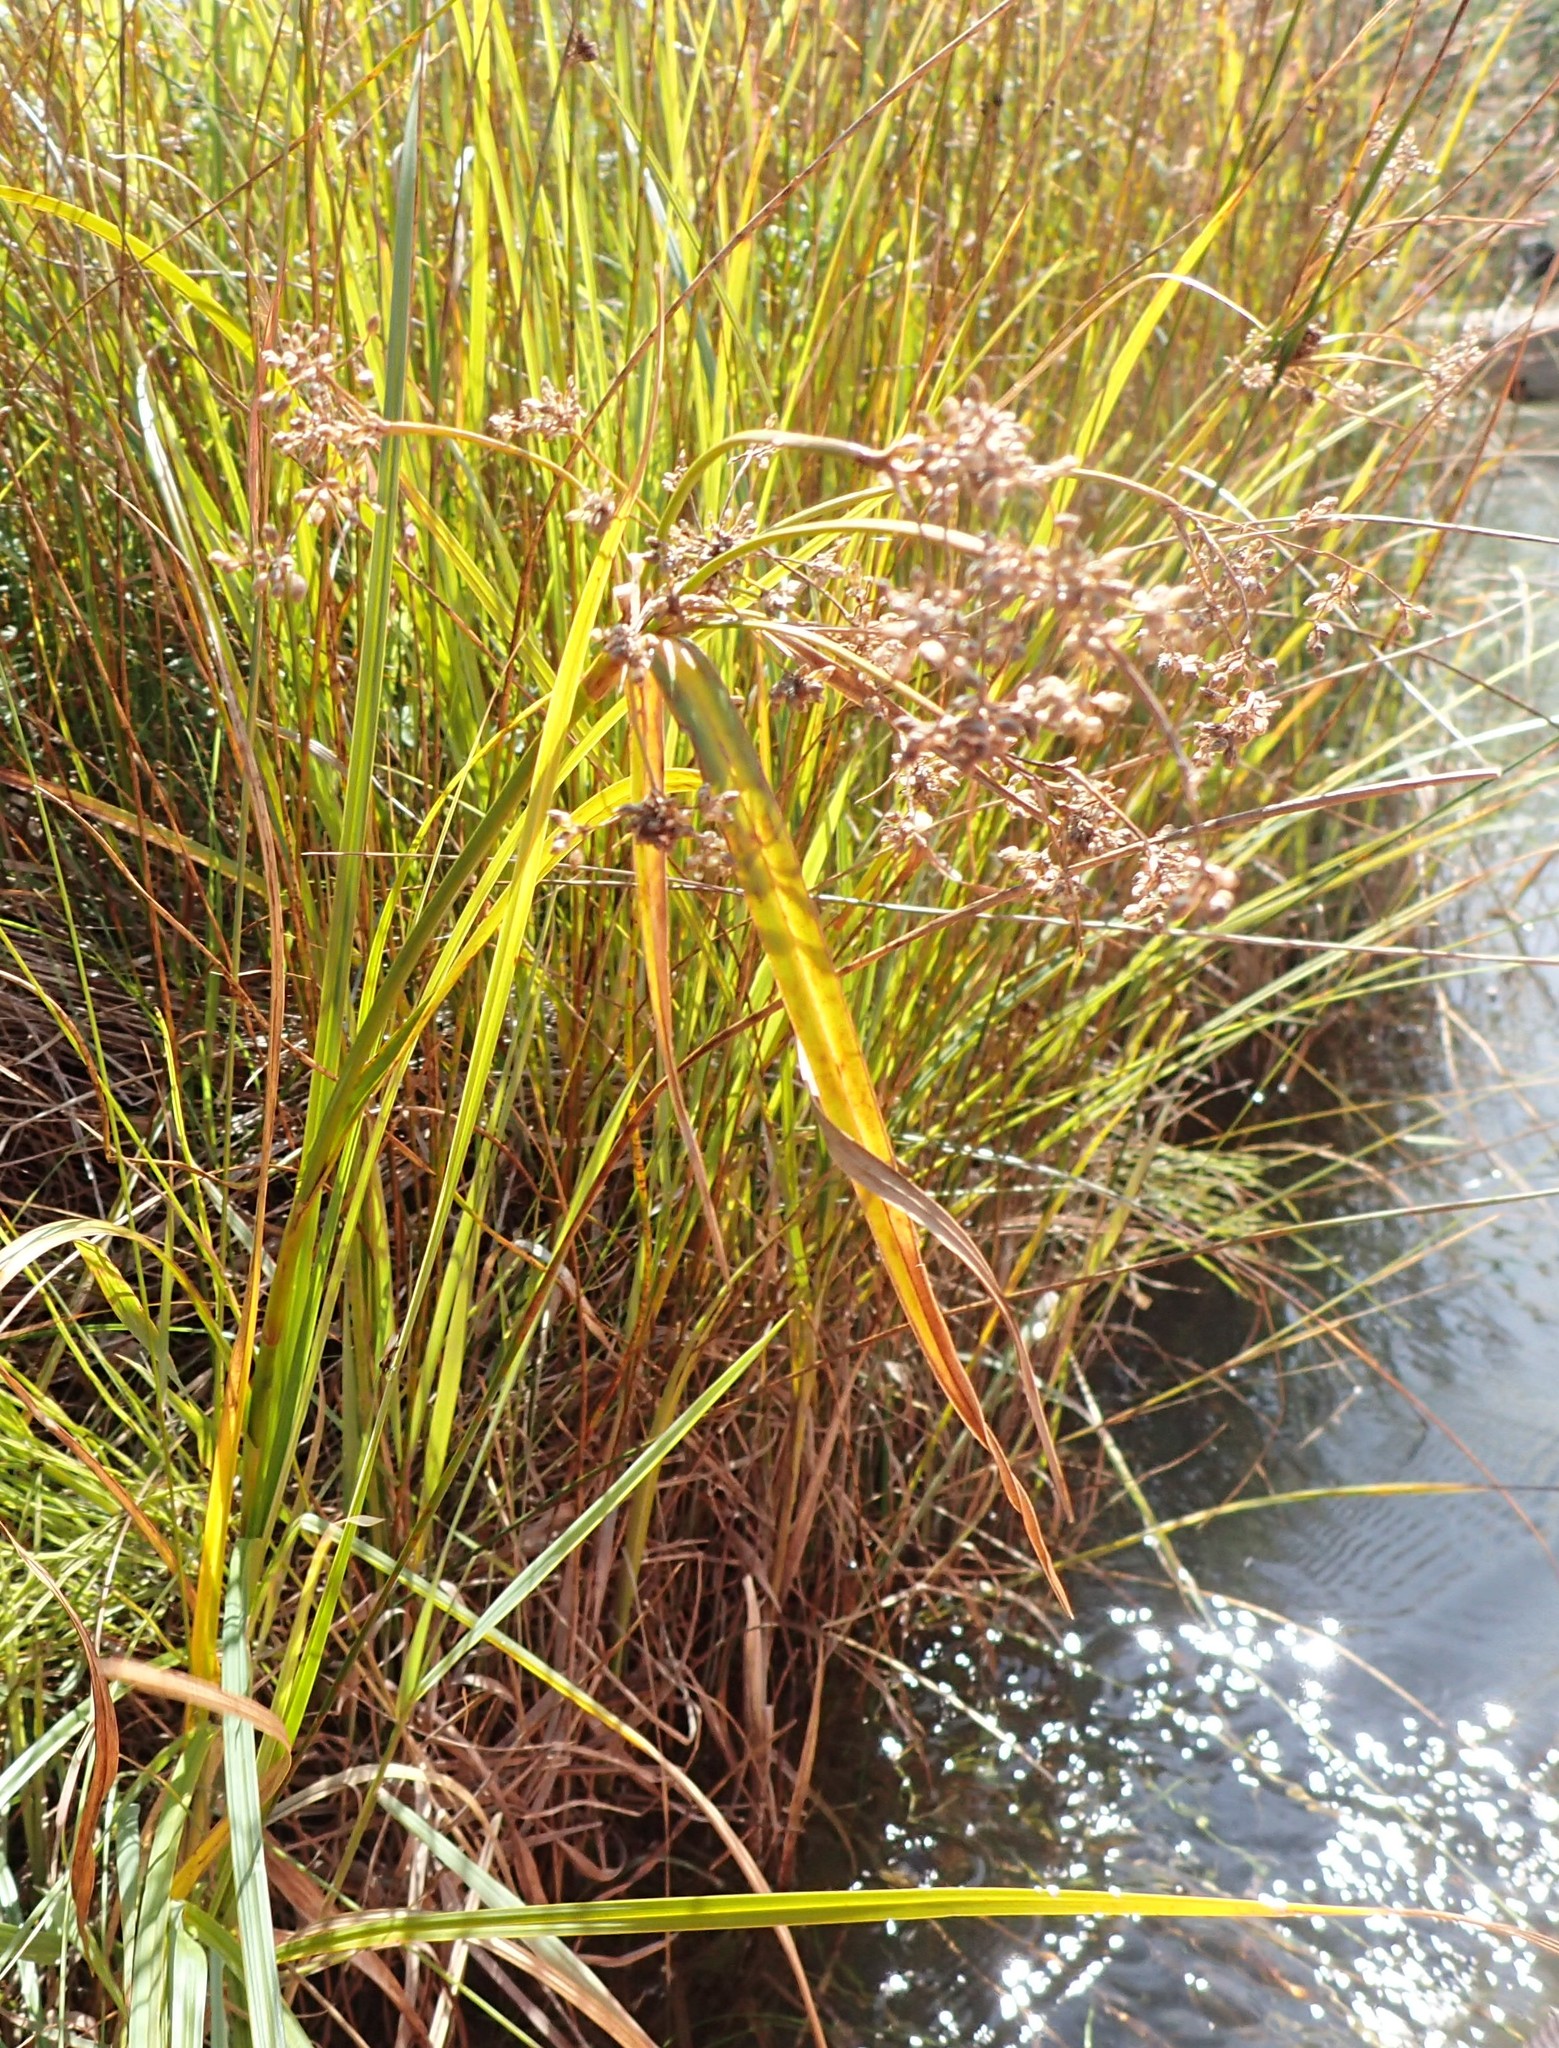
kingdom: Plantae
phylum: Tracheophyta
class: Liliopsida
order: Poales
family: Cyperaceae
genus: Scirpus
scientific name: Scirpus microcarpus
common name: Panicled bulrush
